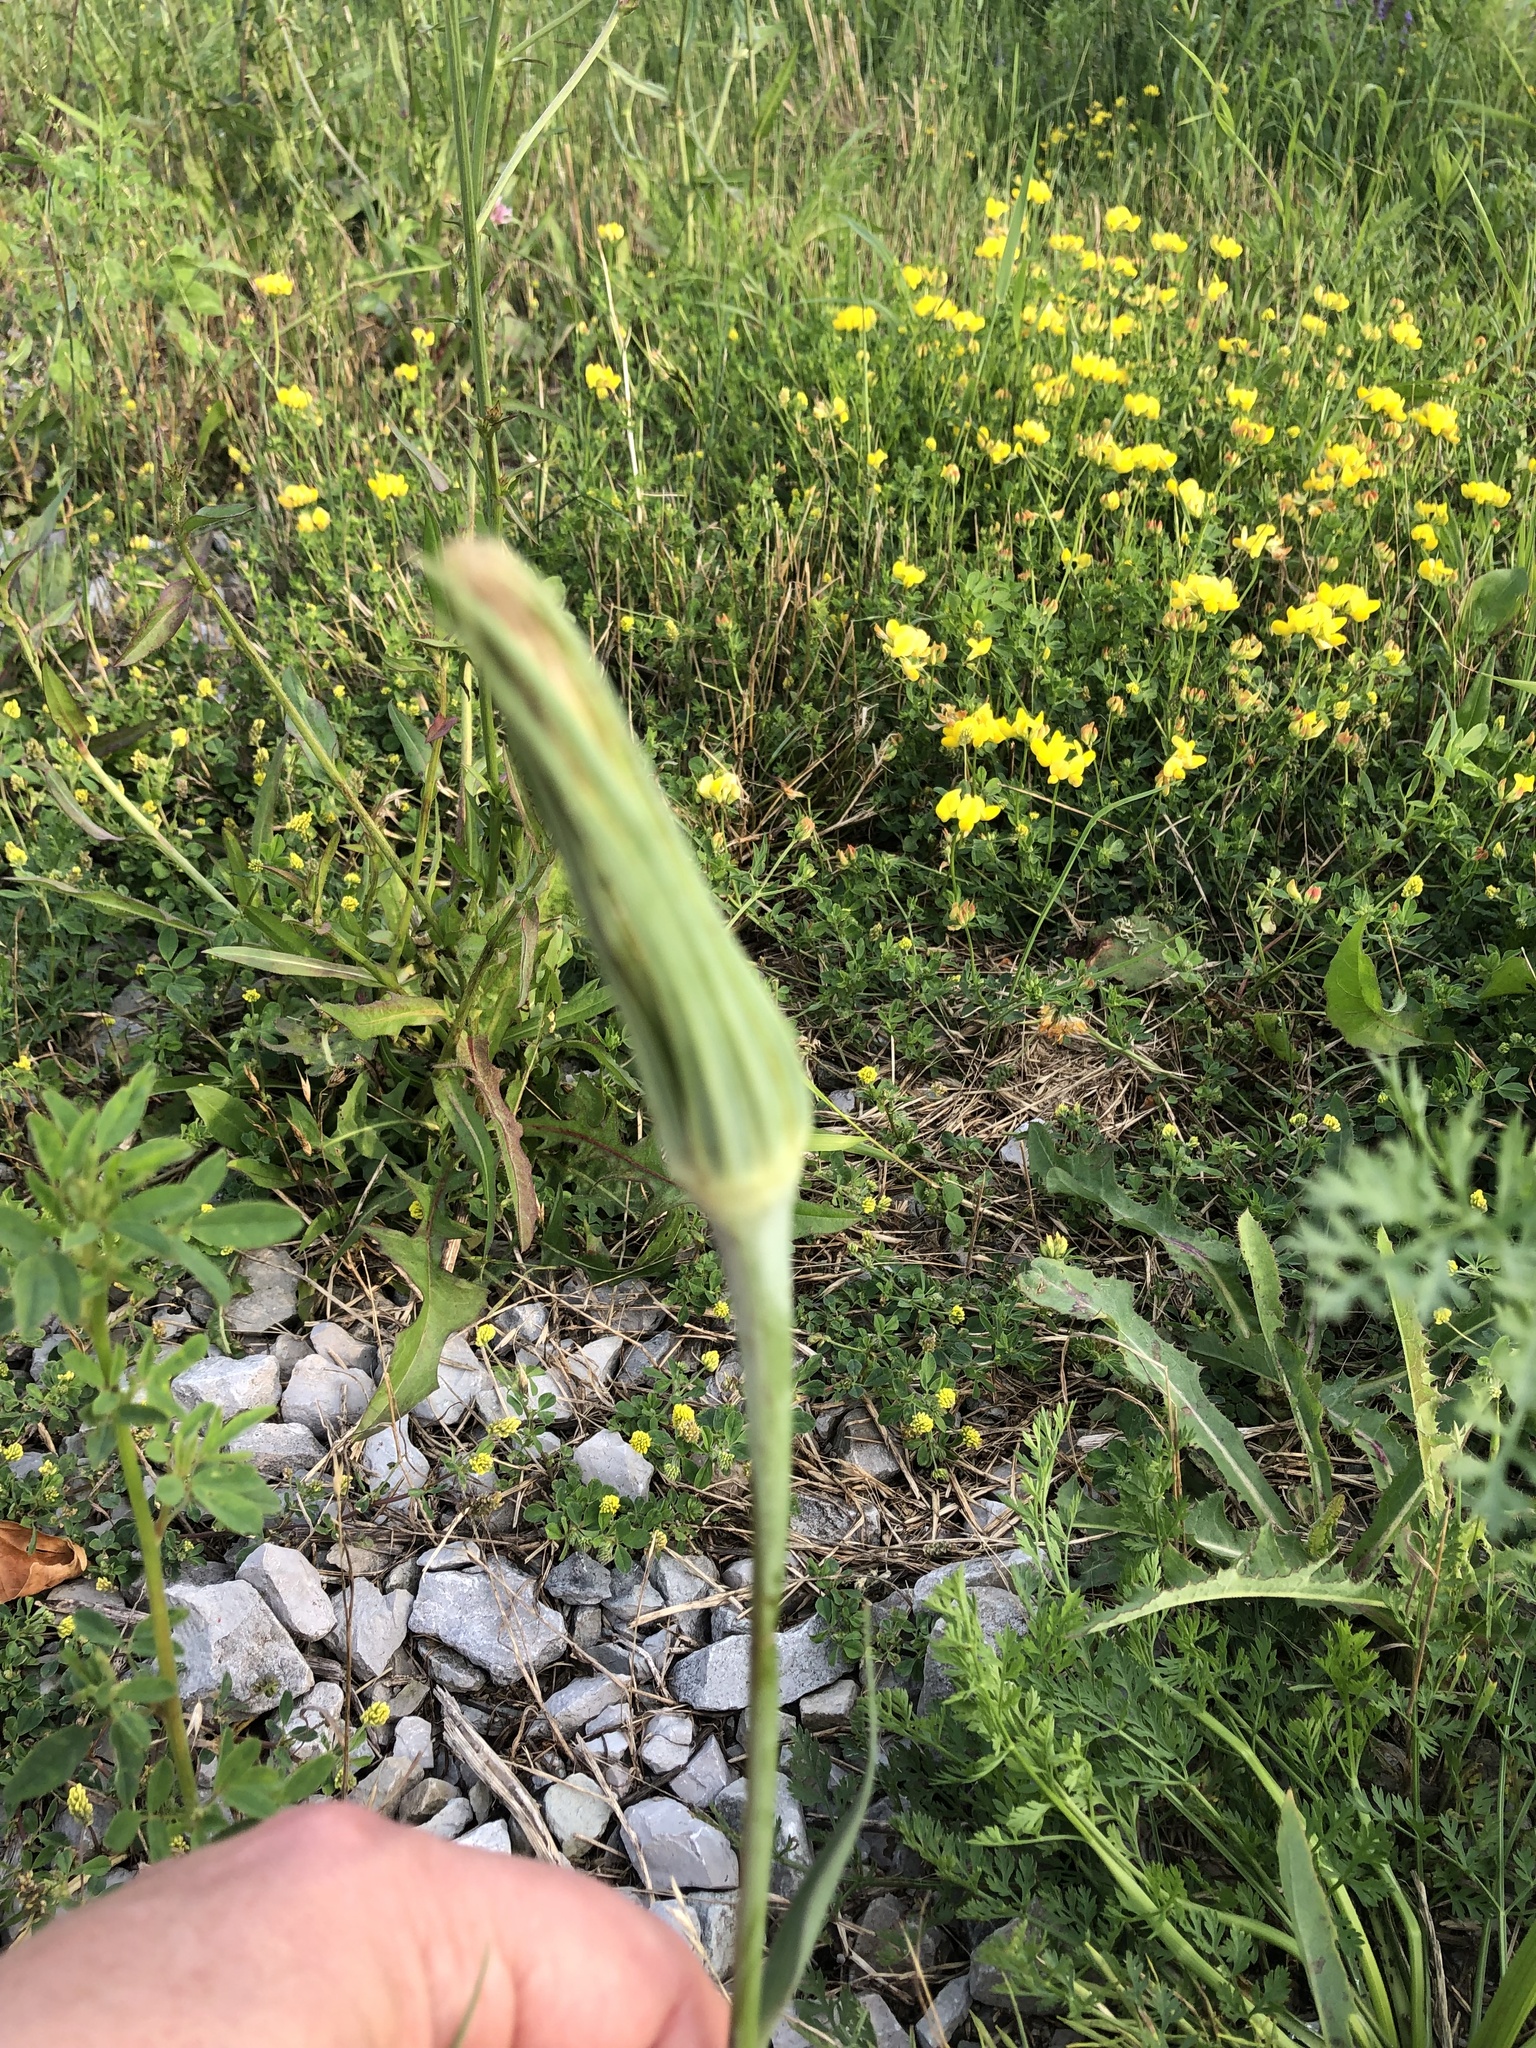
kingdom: Plantae
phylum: Tracheophyta
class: Magnoliopsida
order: Asterales
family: Asteraceae
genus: Tragopogon
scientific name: Tragopogon dubius
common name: Yellow salsify
